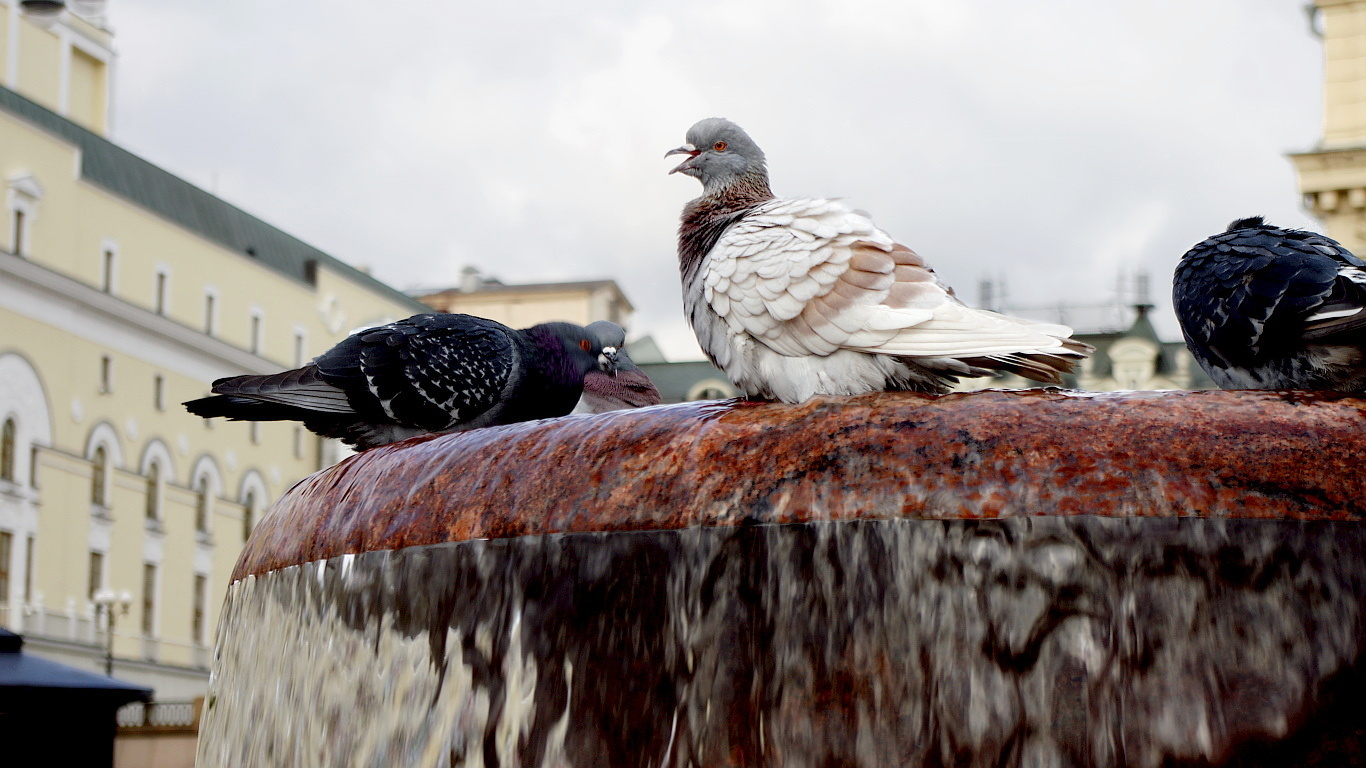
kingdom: Animalia
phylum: Chordata
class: Aves
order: Columbiformes
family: Columbidae
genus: Columba
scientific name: Columba livia
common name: Rock pigeon
